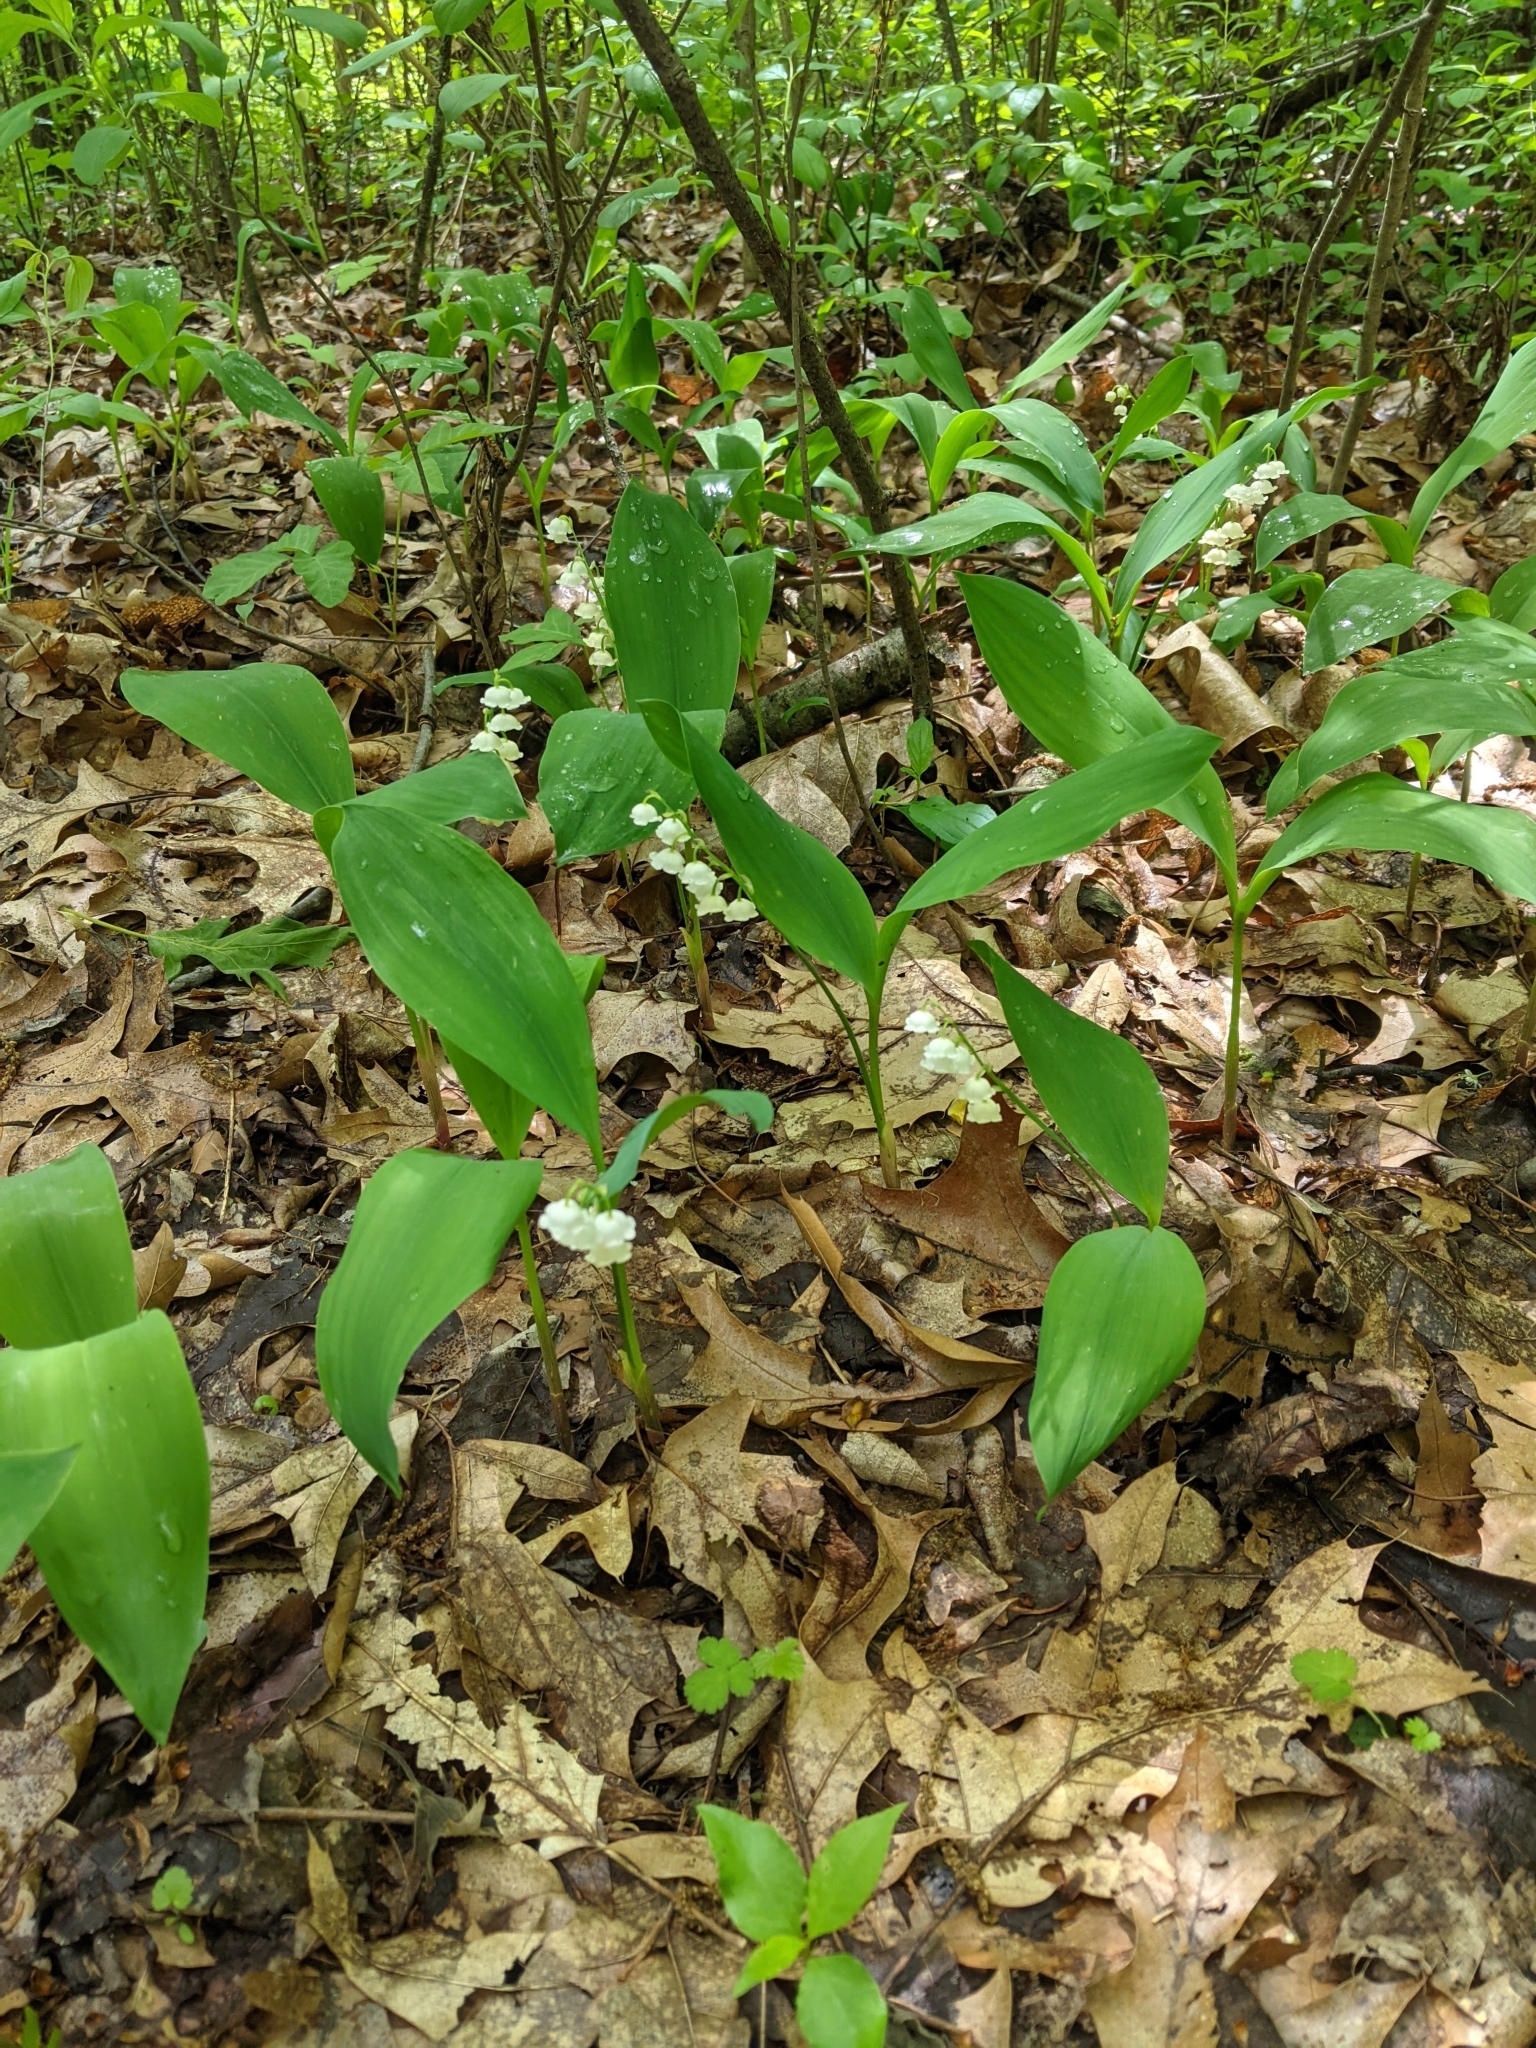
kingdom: Plantae
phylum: Tracheophyta
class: Liliopsida
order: Asparagales
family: Asparagaceae
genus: Convallaria
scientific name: Convallaria majalis
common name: Lily-of-the-valley
